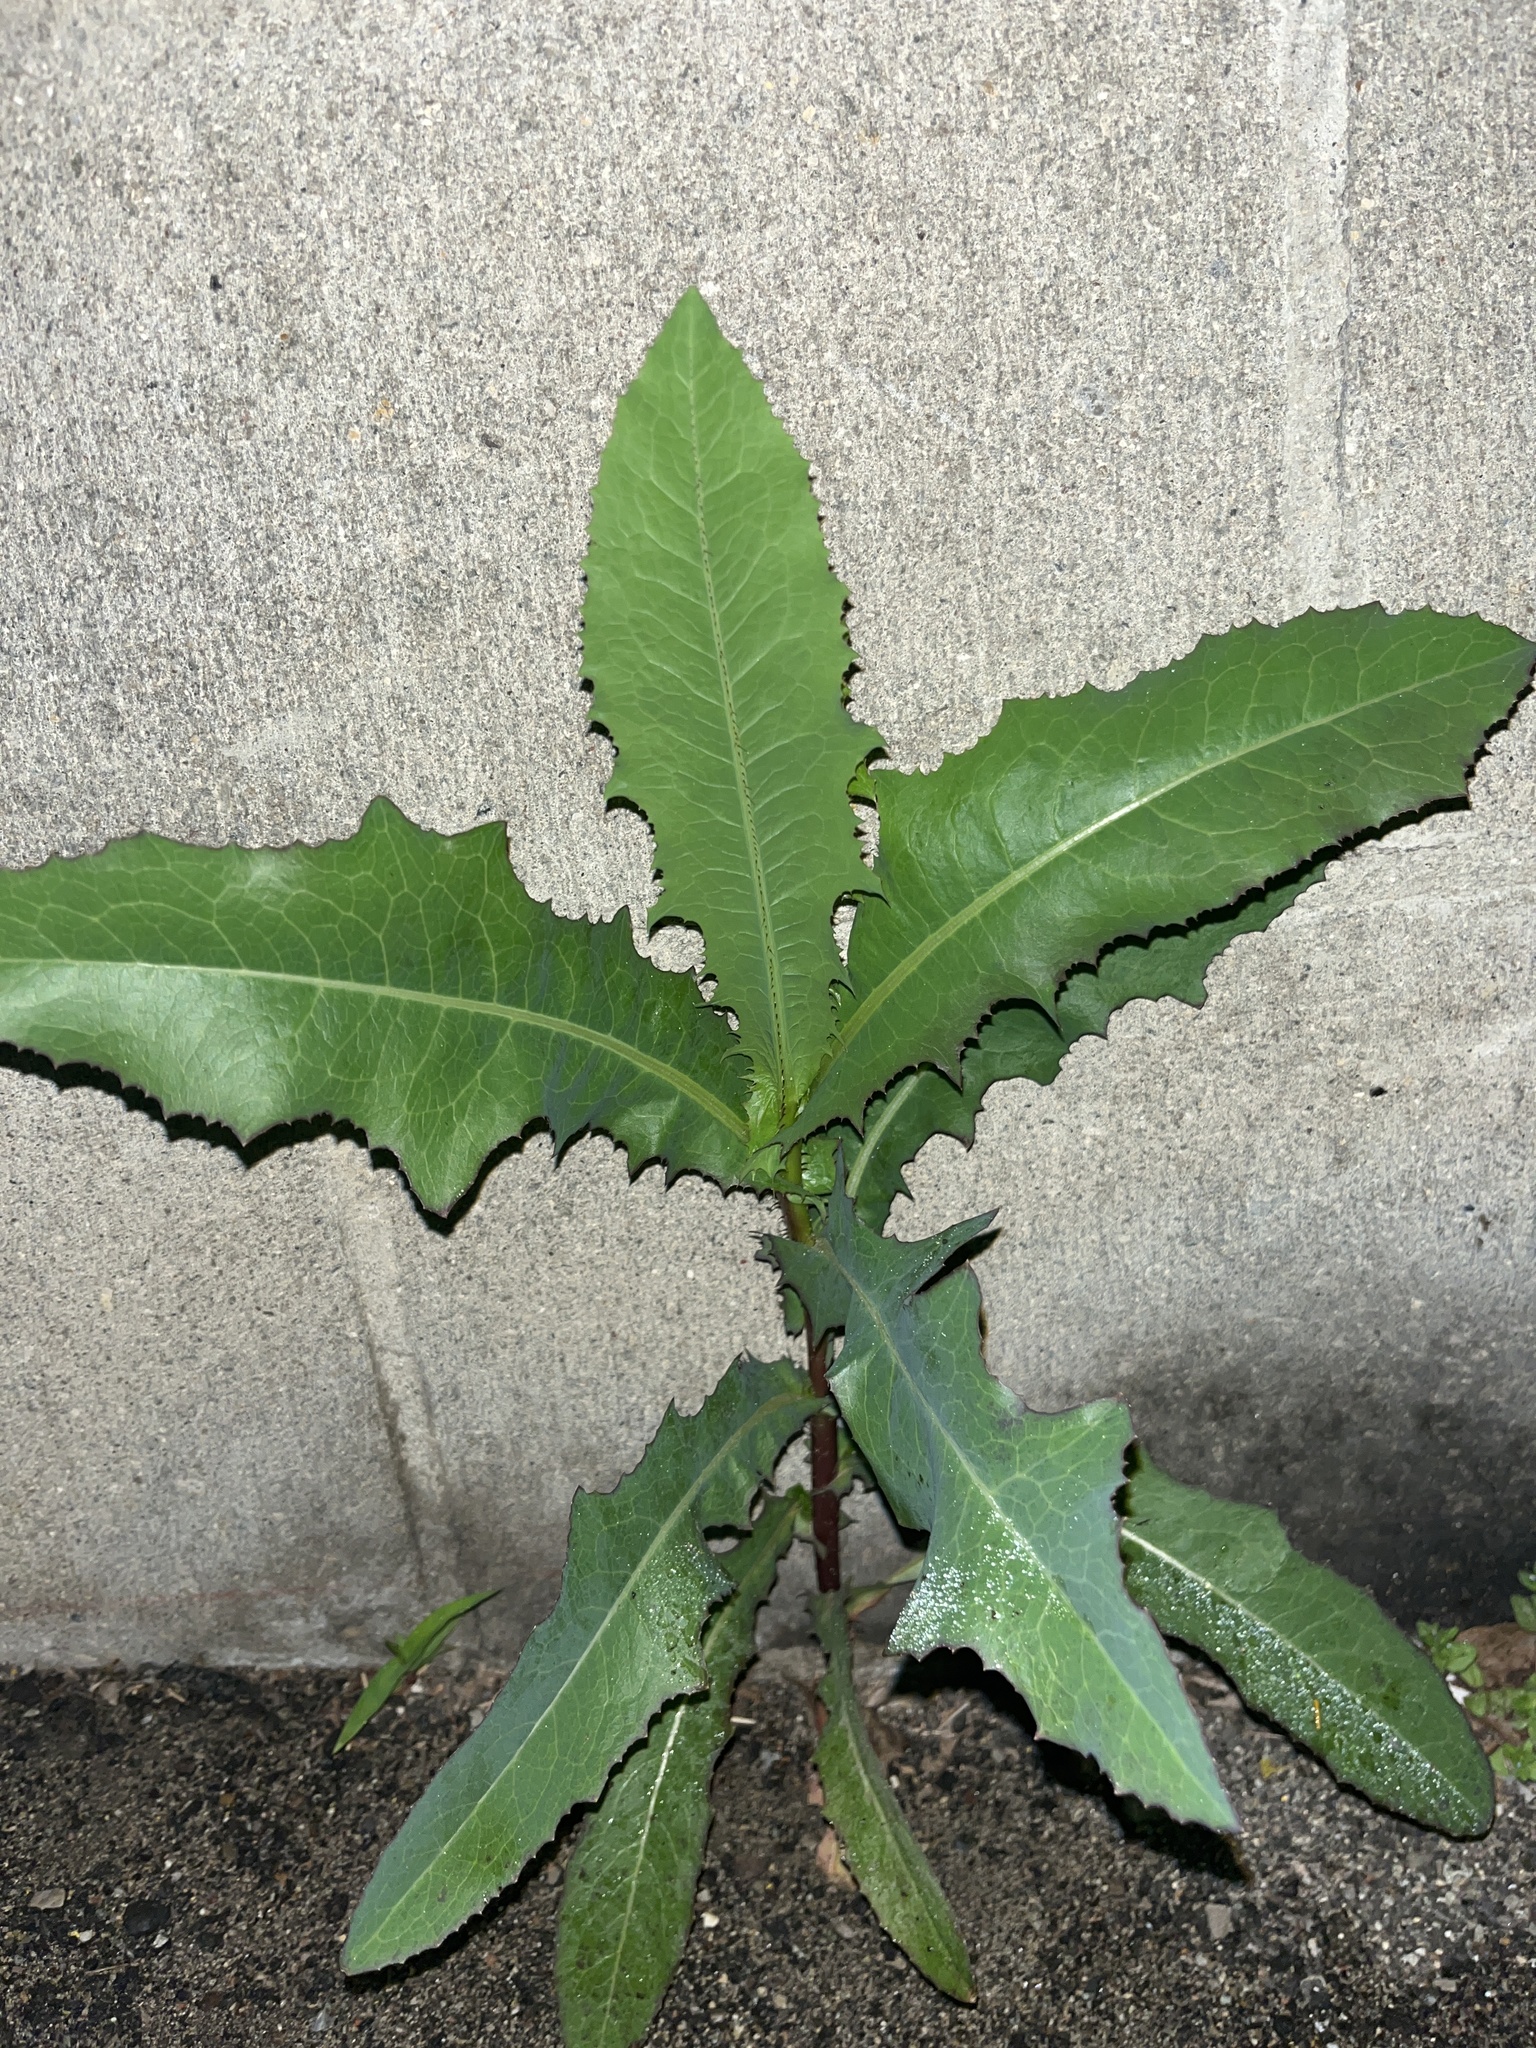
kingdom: Plantae
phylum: Tracheophyta
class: Magnoliopsida
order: Asterales
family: Asteraceae
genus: Lactuca
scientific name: Lactuca serriola
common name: Prickly lettuce
